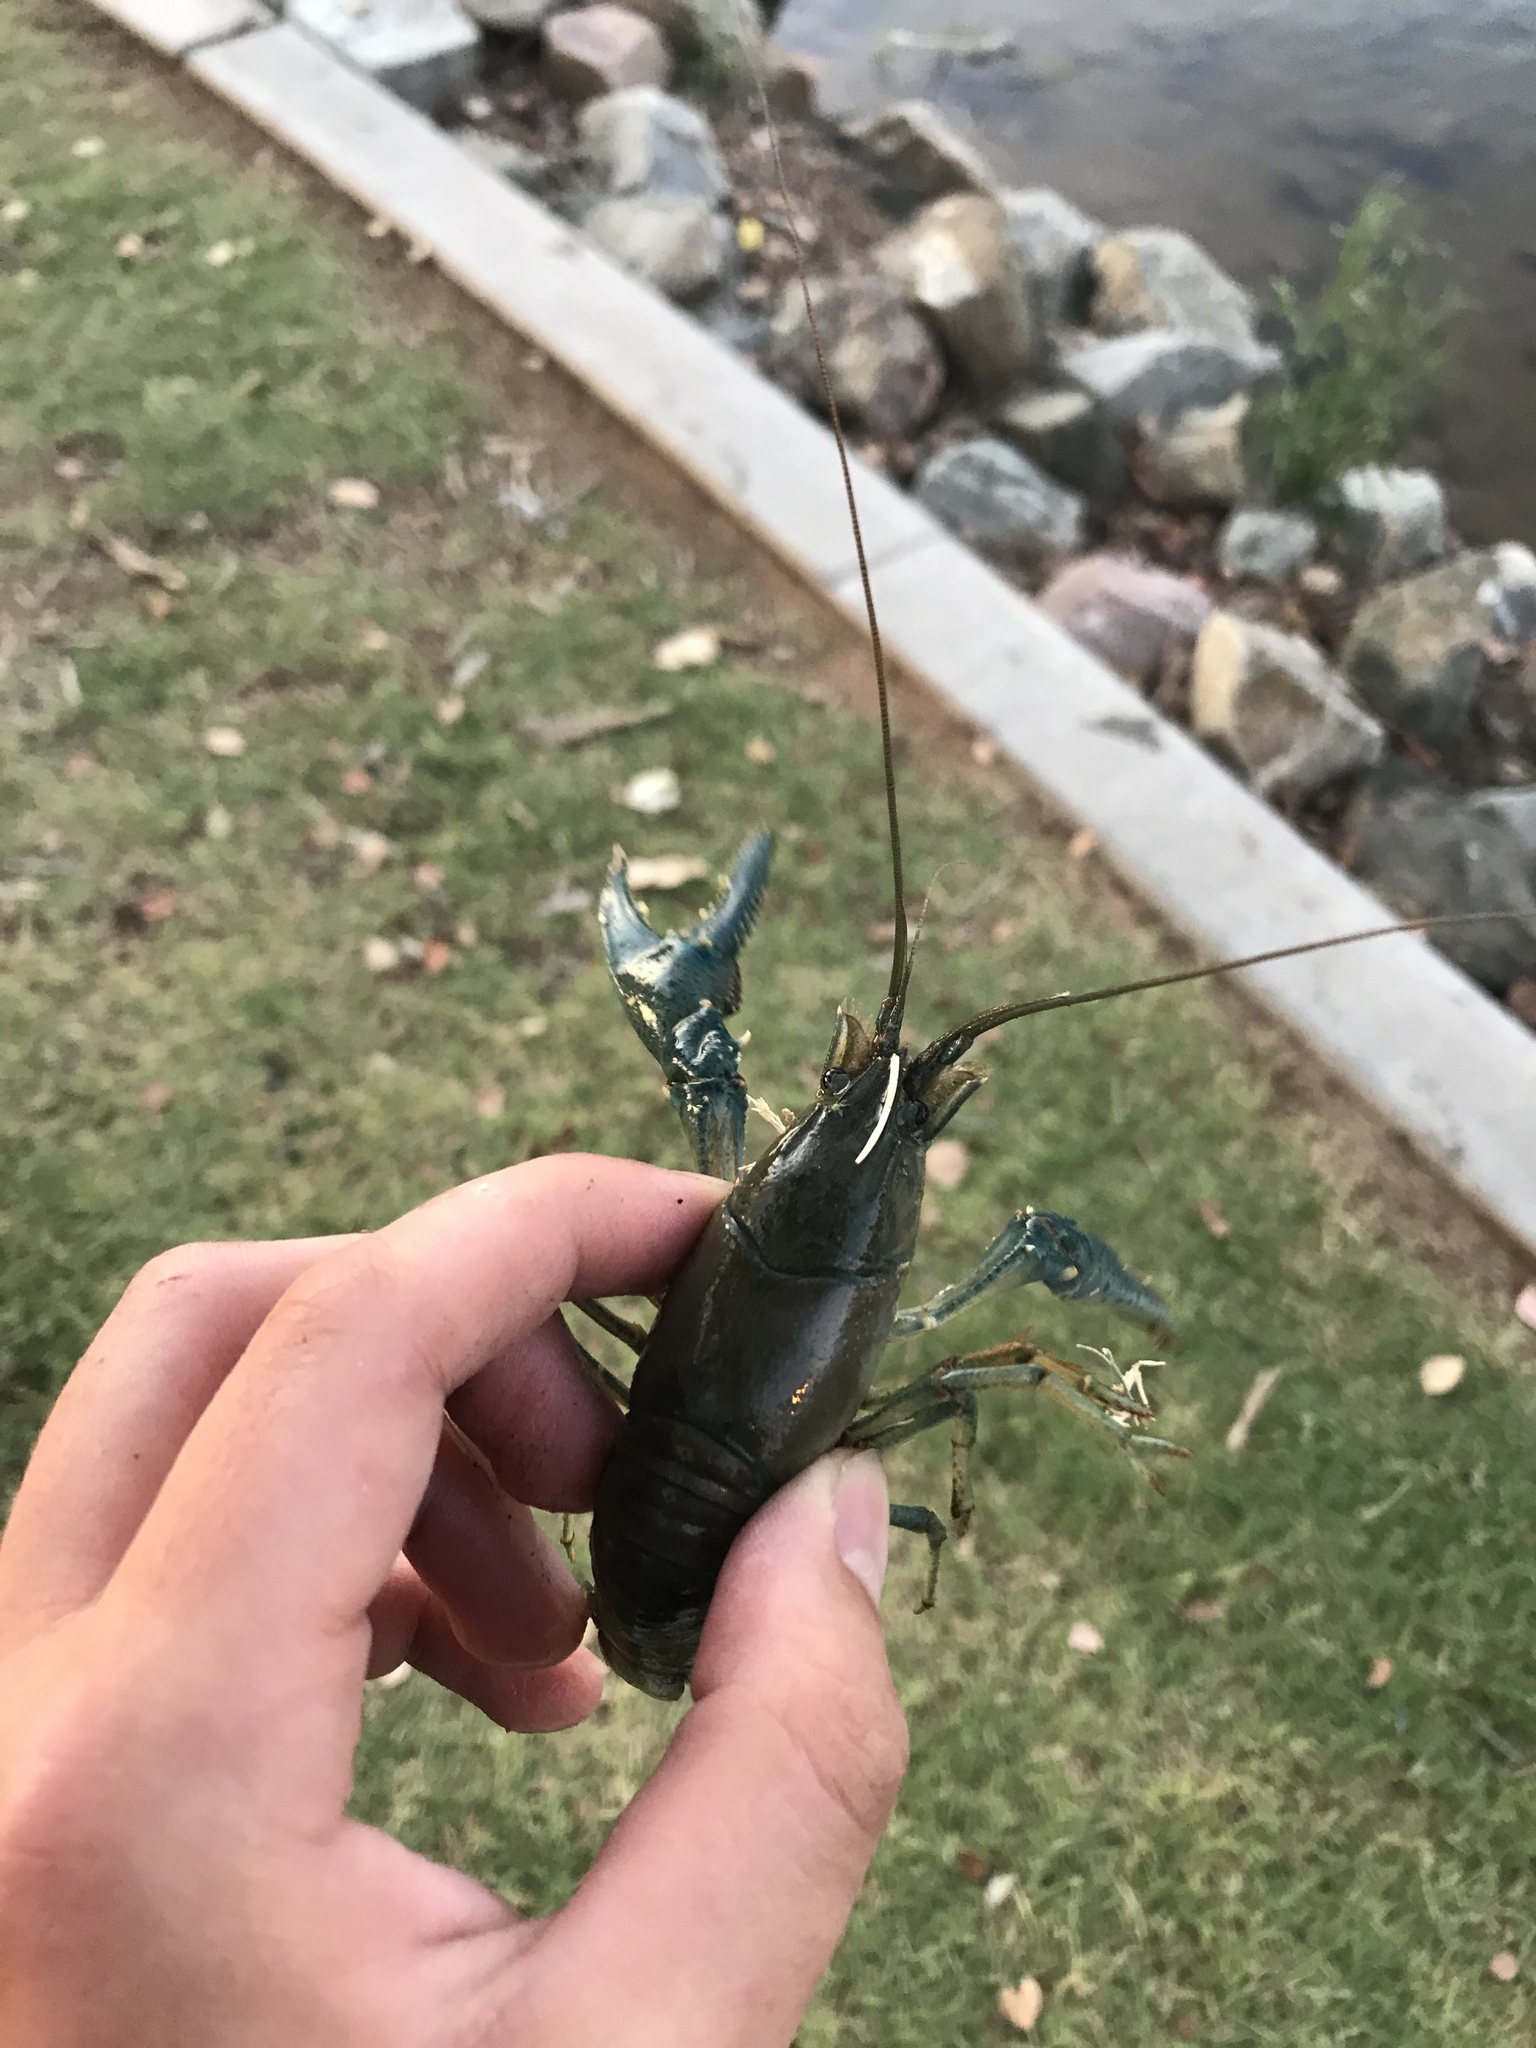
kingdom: Animalia
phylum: Arthropoda
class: Malacostraca
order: Decapoda
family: Cambaridae
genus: Faxonius
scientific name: Faxonius virilis
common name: Virile crayfish
